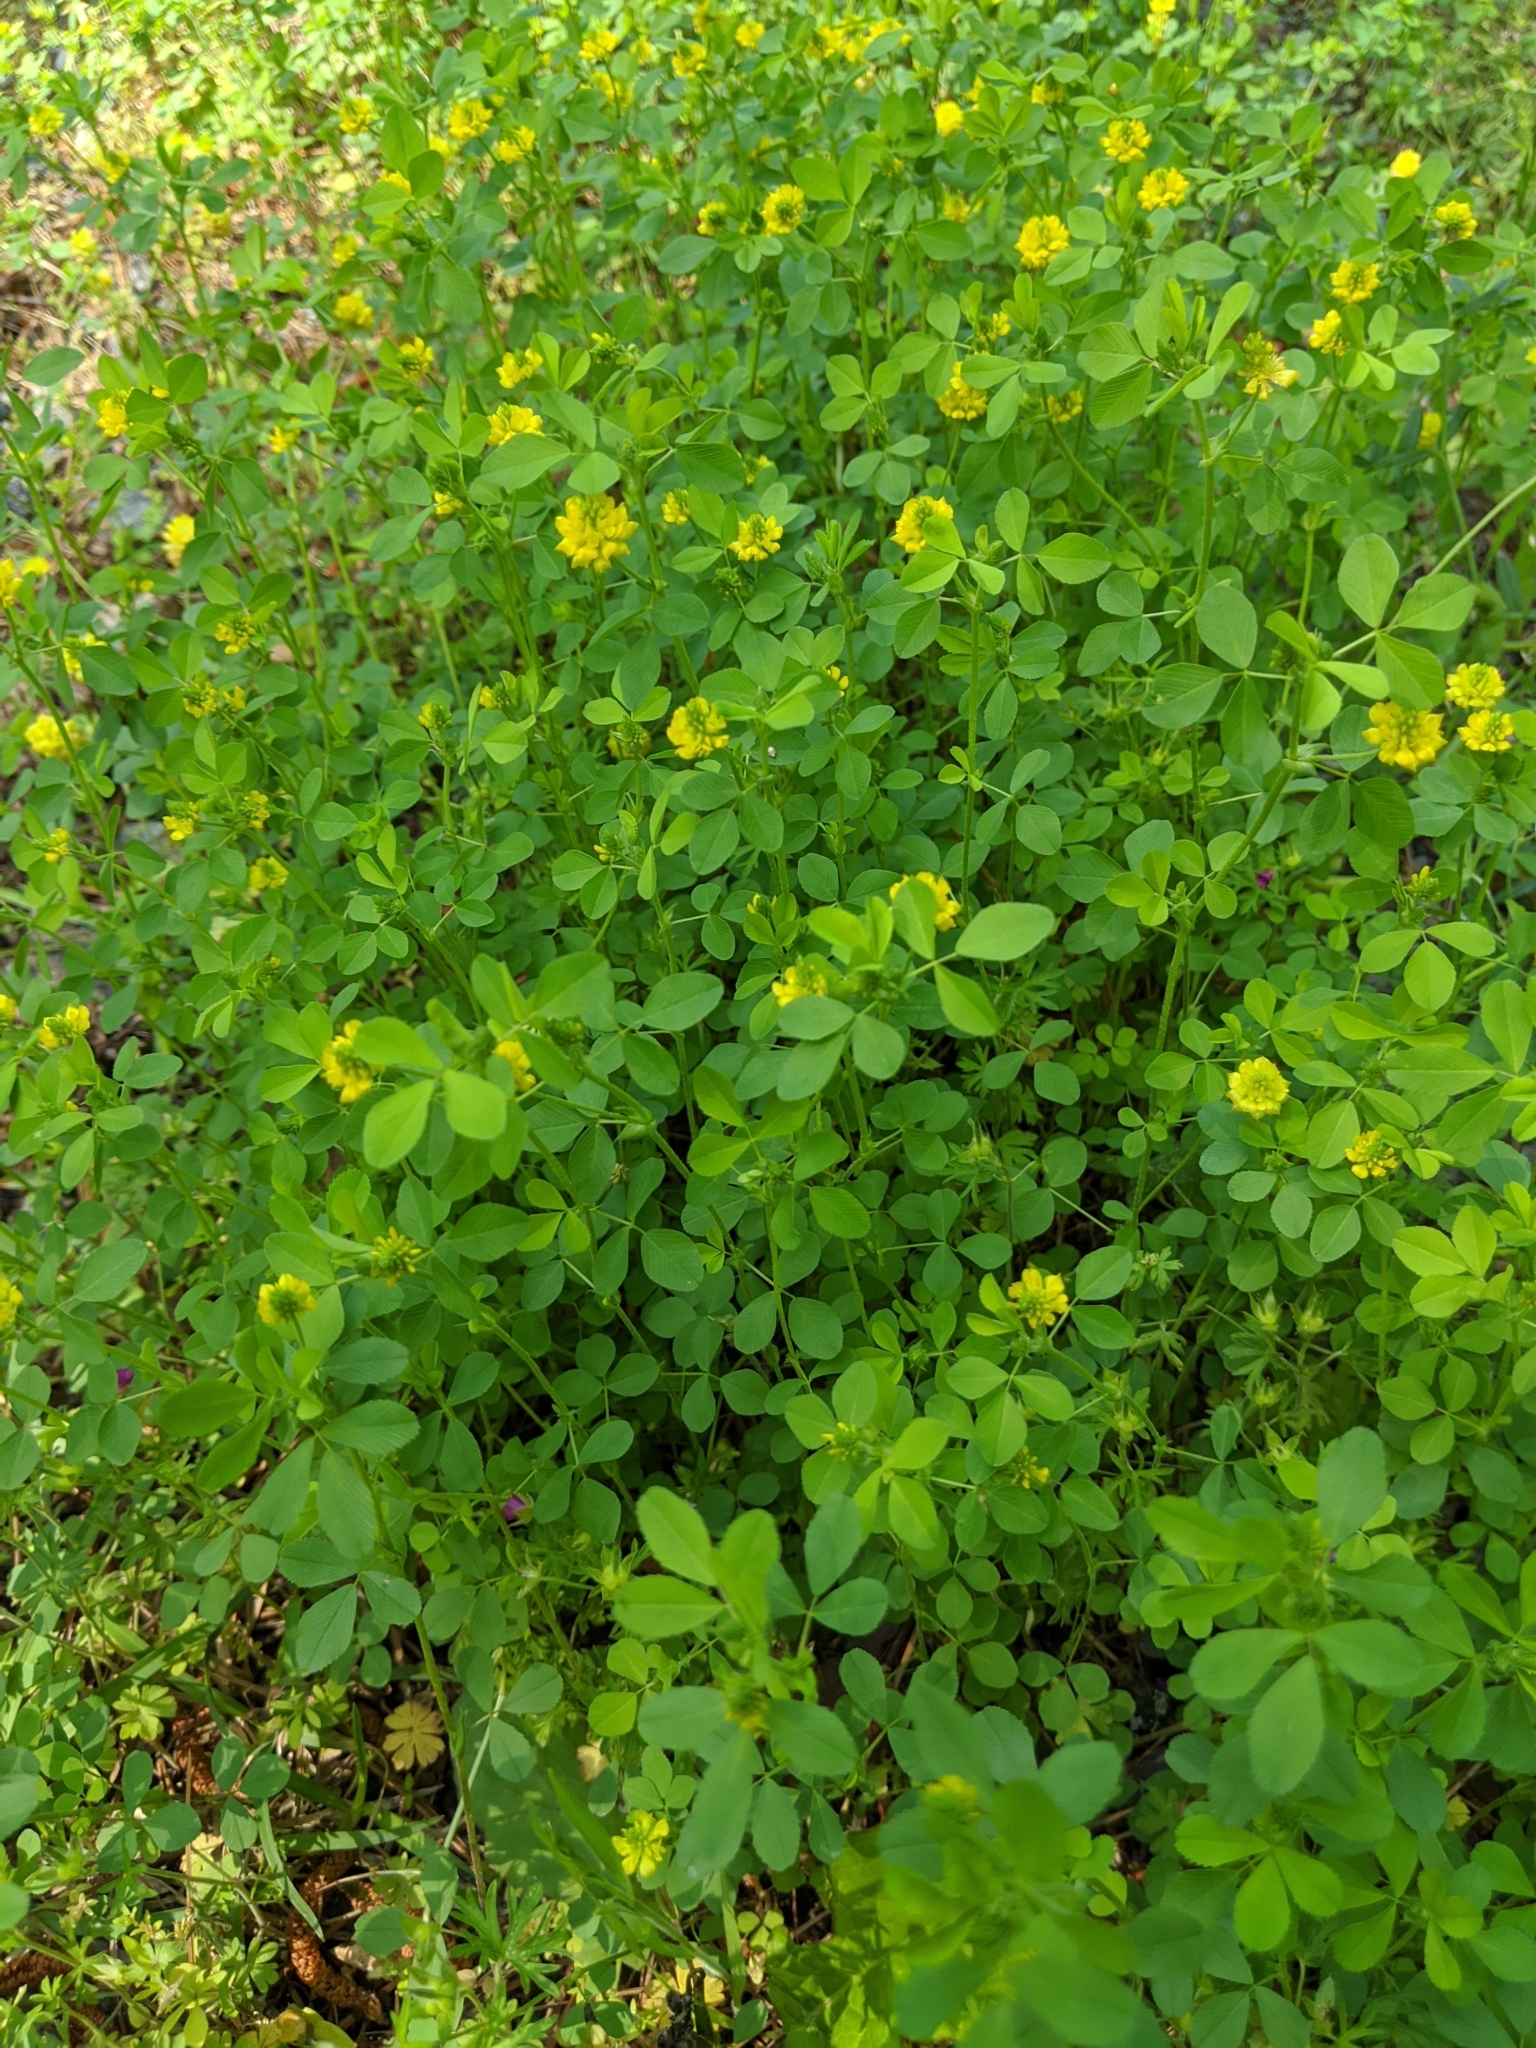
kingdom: Plantae
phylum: Tracheophyta
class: Magnoliopsida
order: Fabales
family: Fabaceae
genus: Trifolium
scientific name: Trifolium campestre
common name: Field clover
